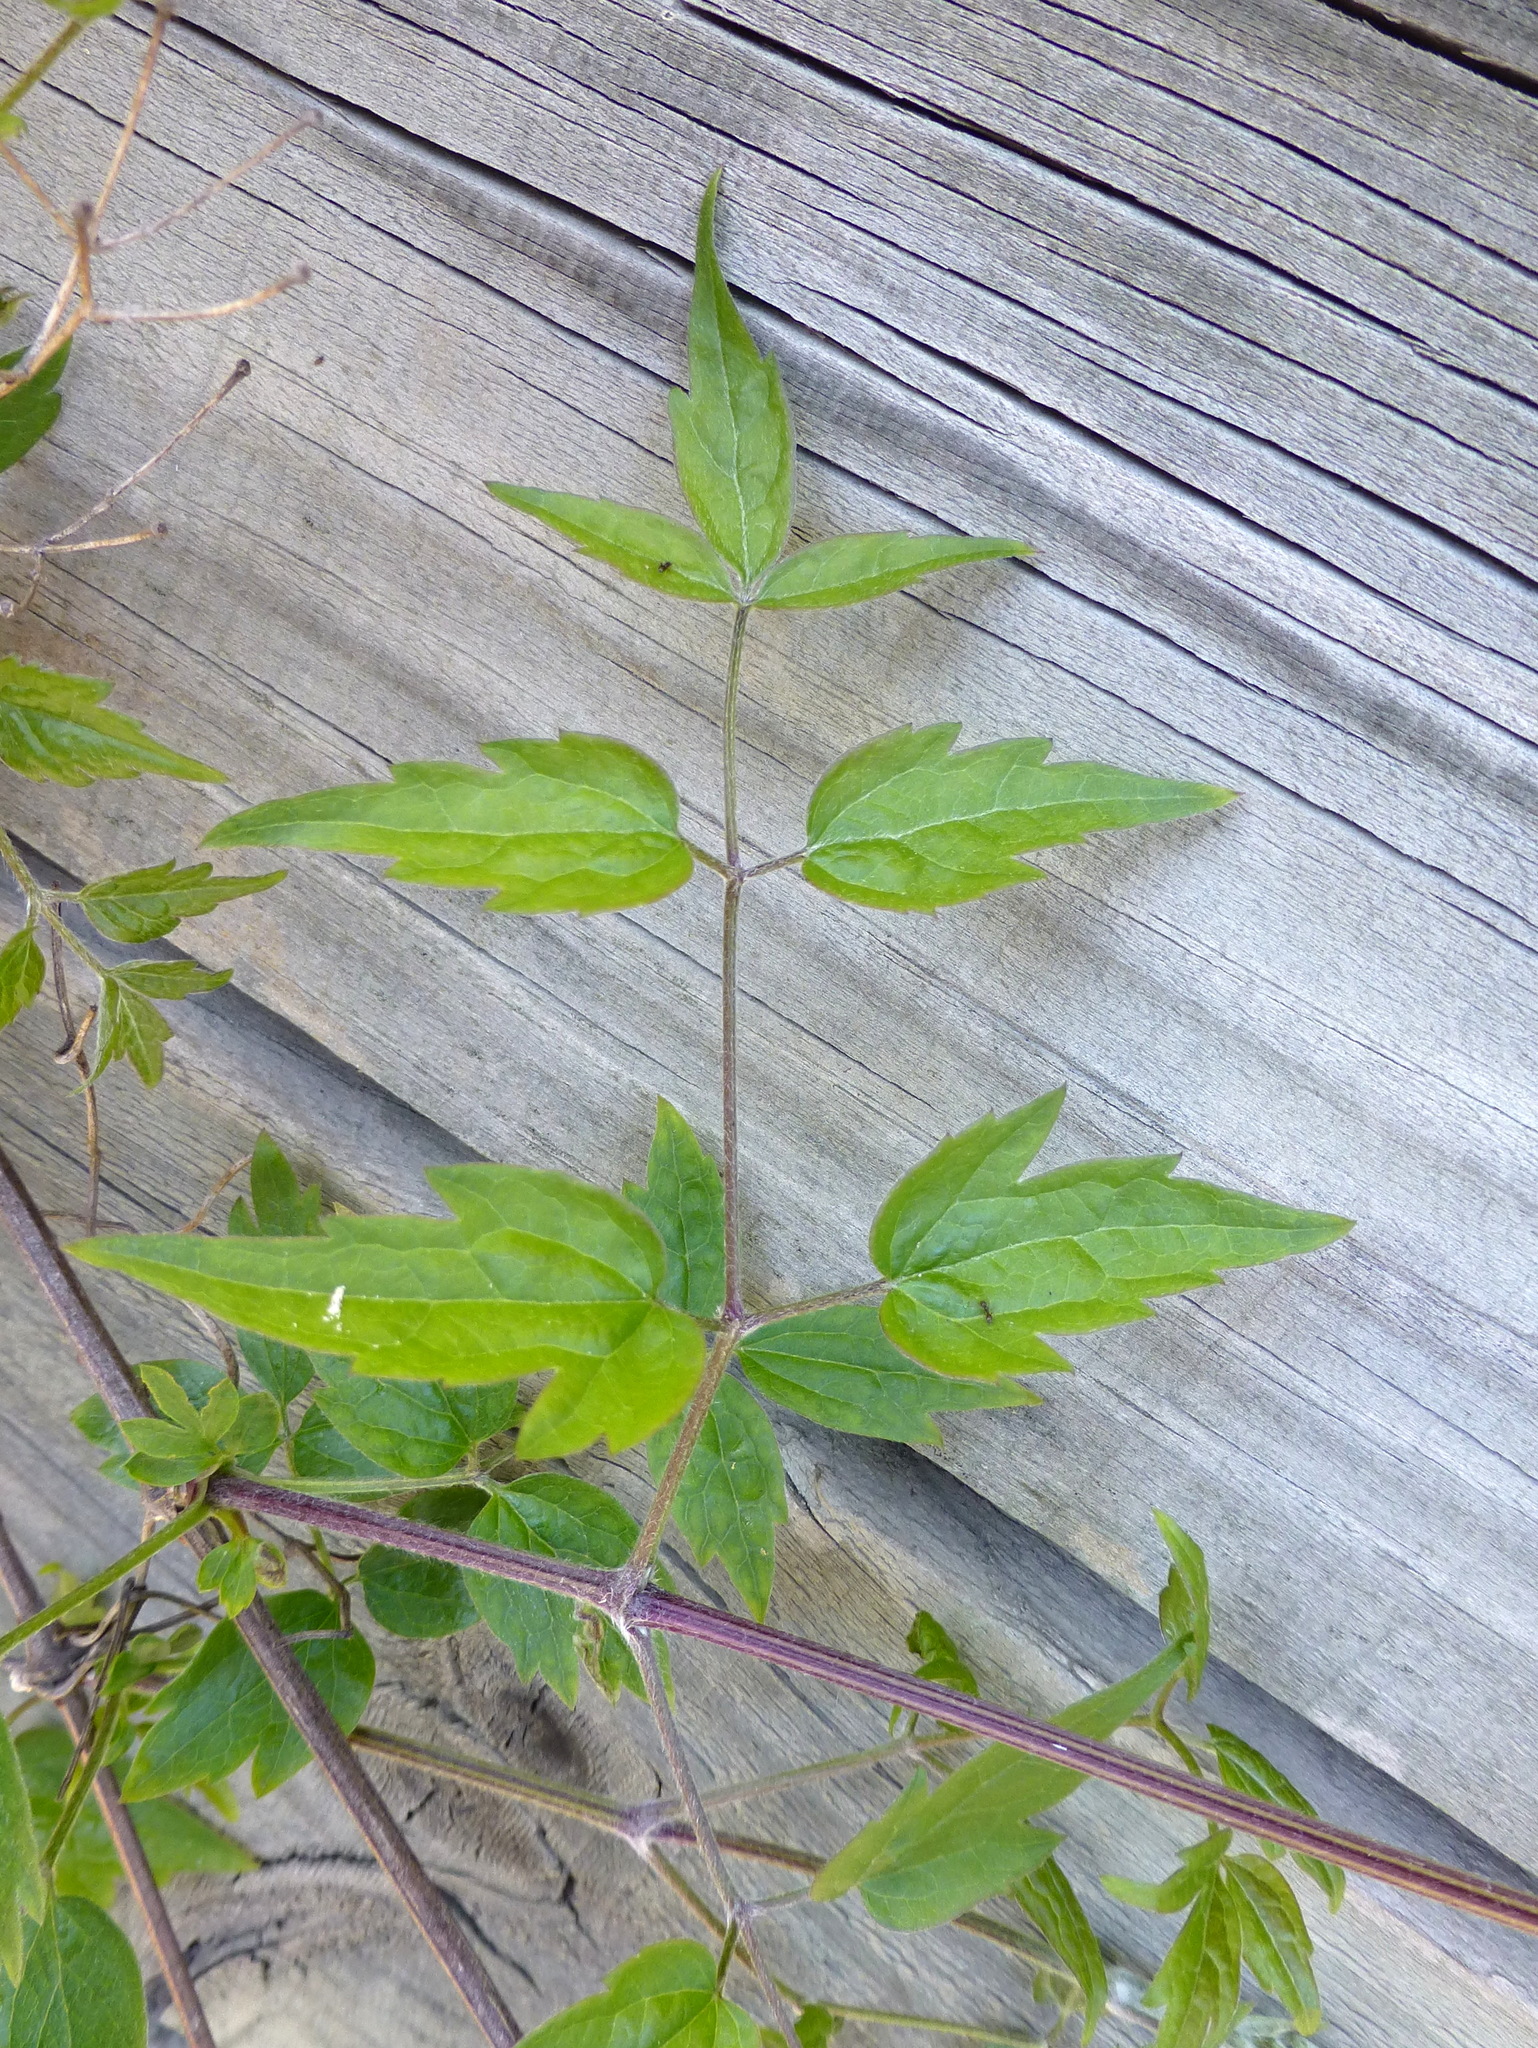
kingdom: Plantae
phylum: Tracheophyta
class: Magnoliopsida
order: Ranunculales
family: Ranunculaceae
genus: Clematis
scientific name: Clematis vitalba
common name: Evergreen clematis
